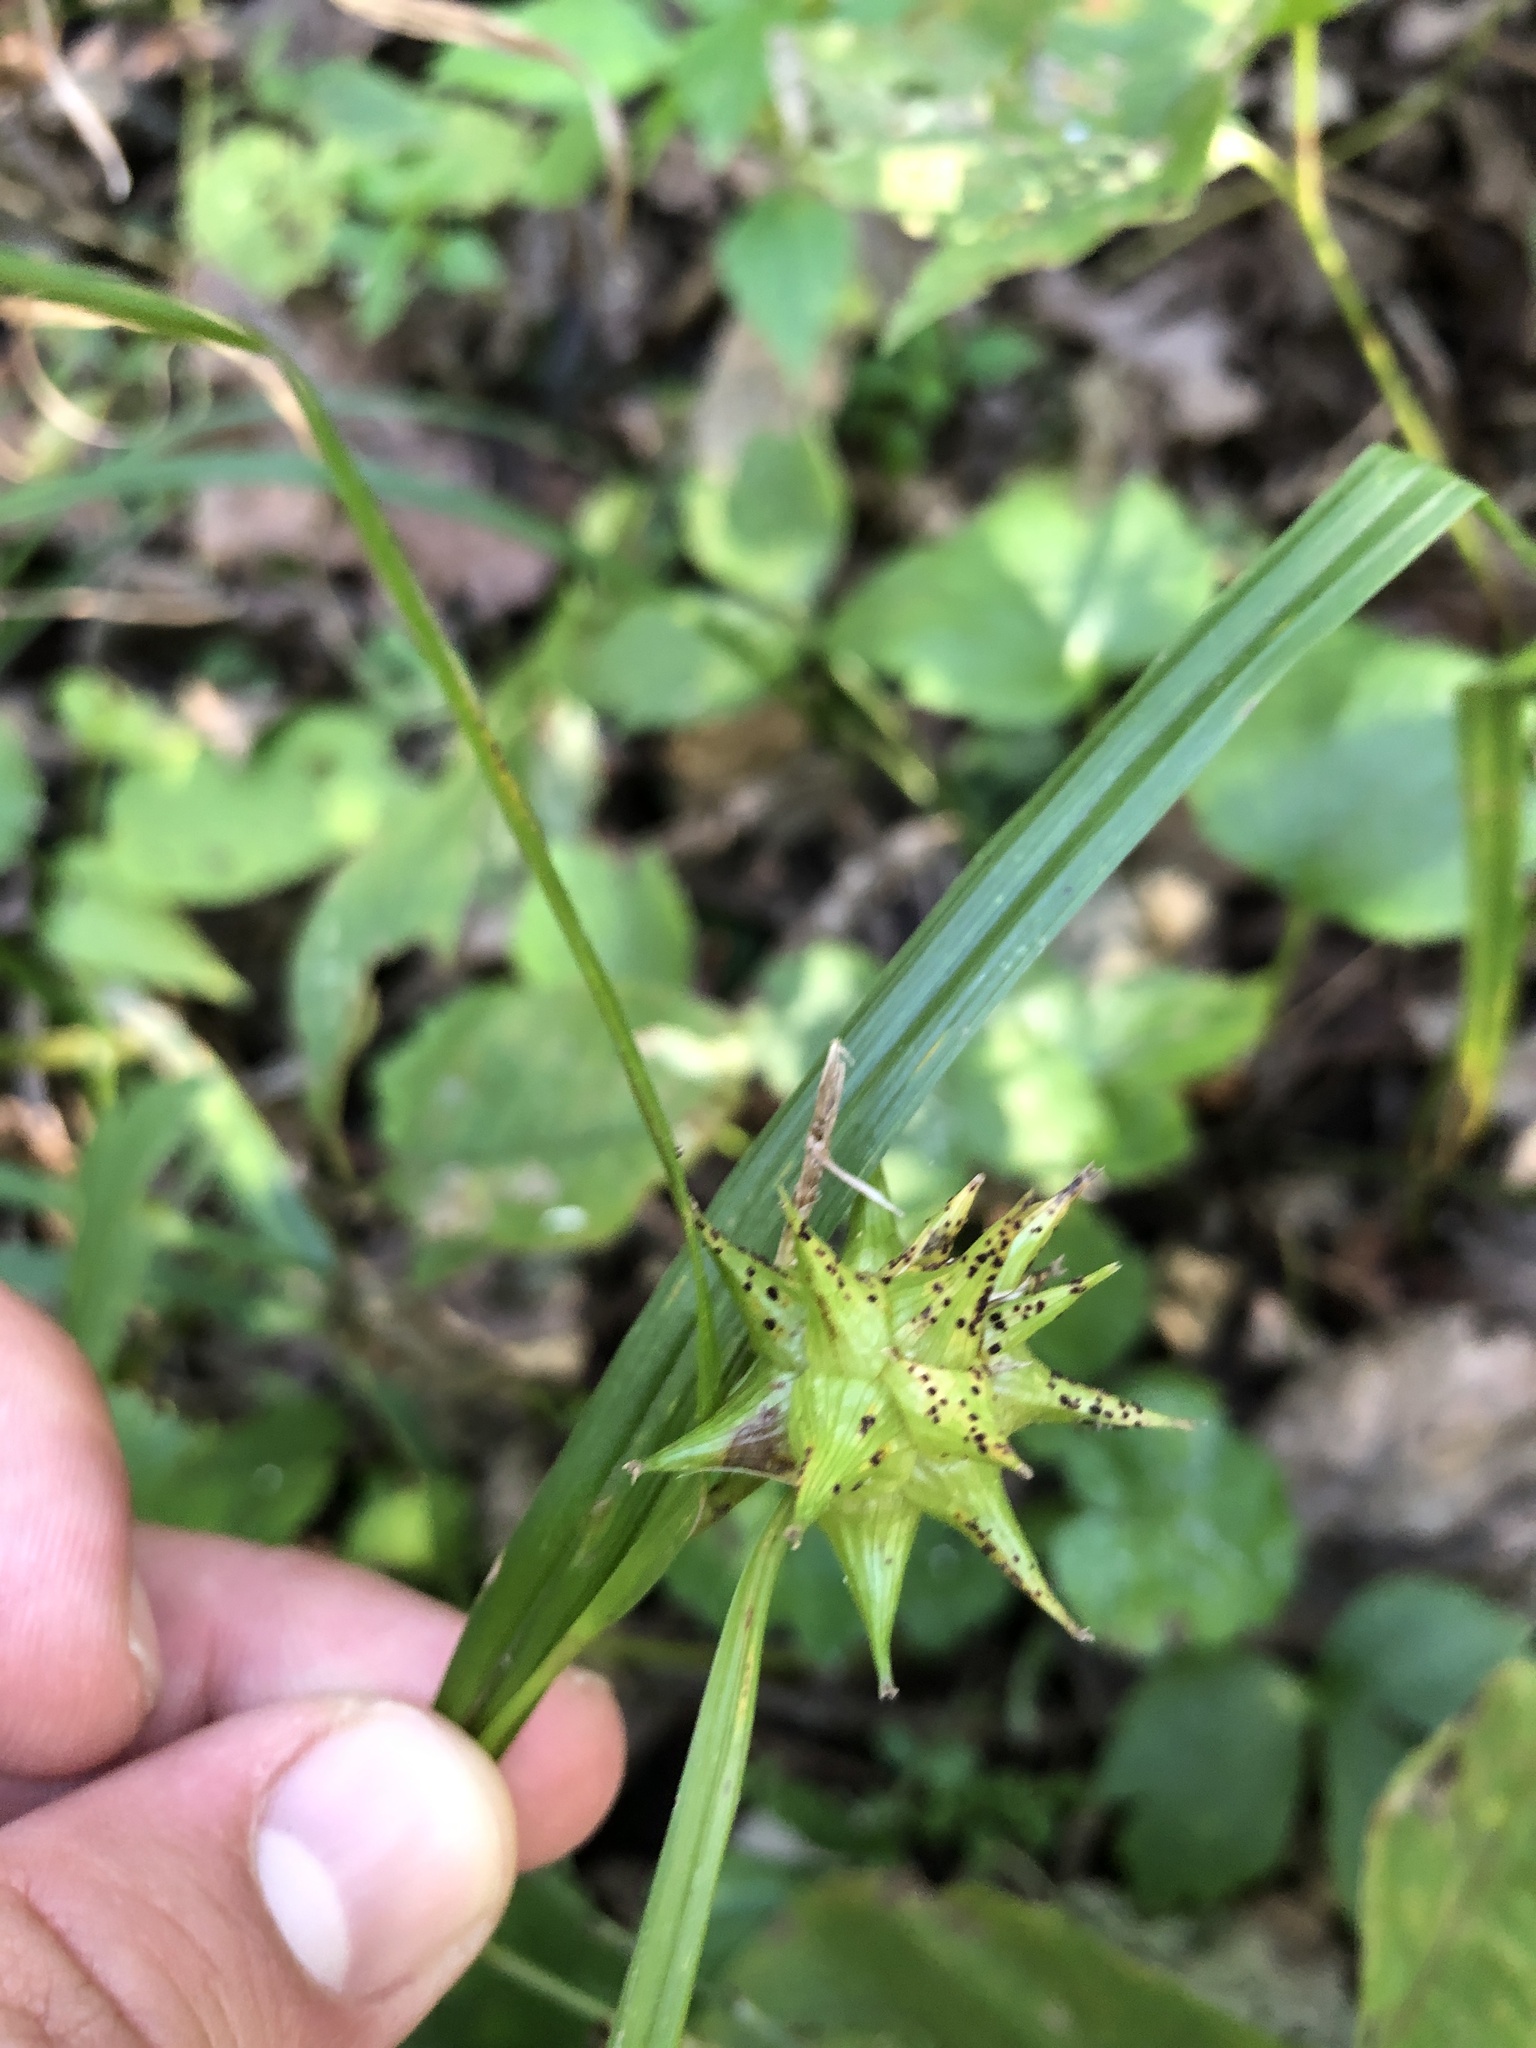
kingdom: Plantae
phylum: Tracheophyta
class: Liliopsida
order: Poales
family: Cyperaceae
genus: Carex
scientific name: Carex grayi
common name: Asa gray's sedge
